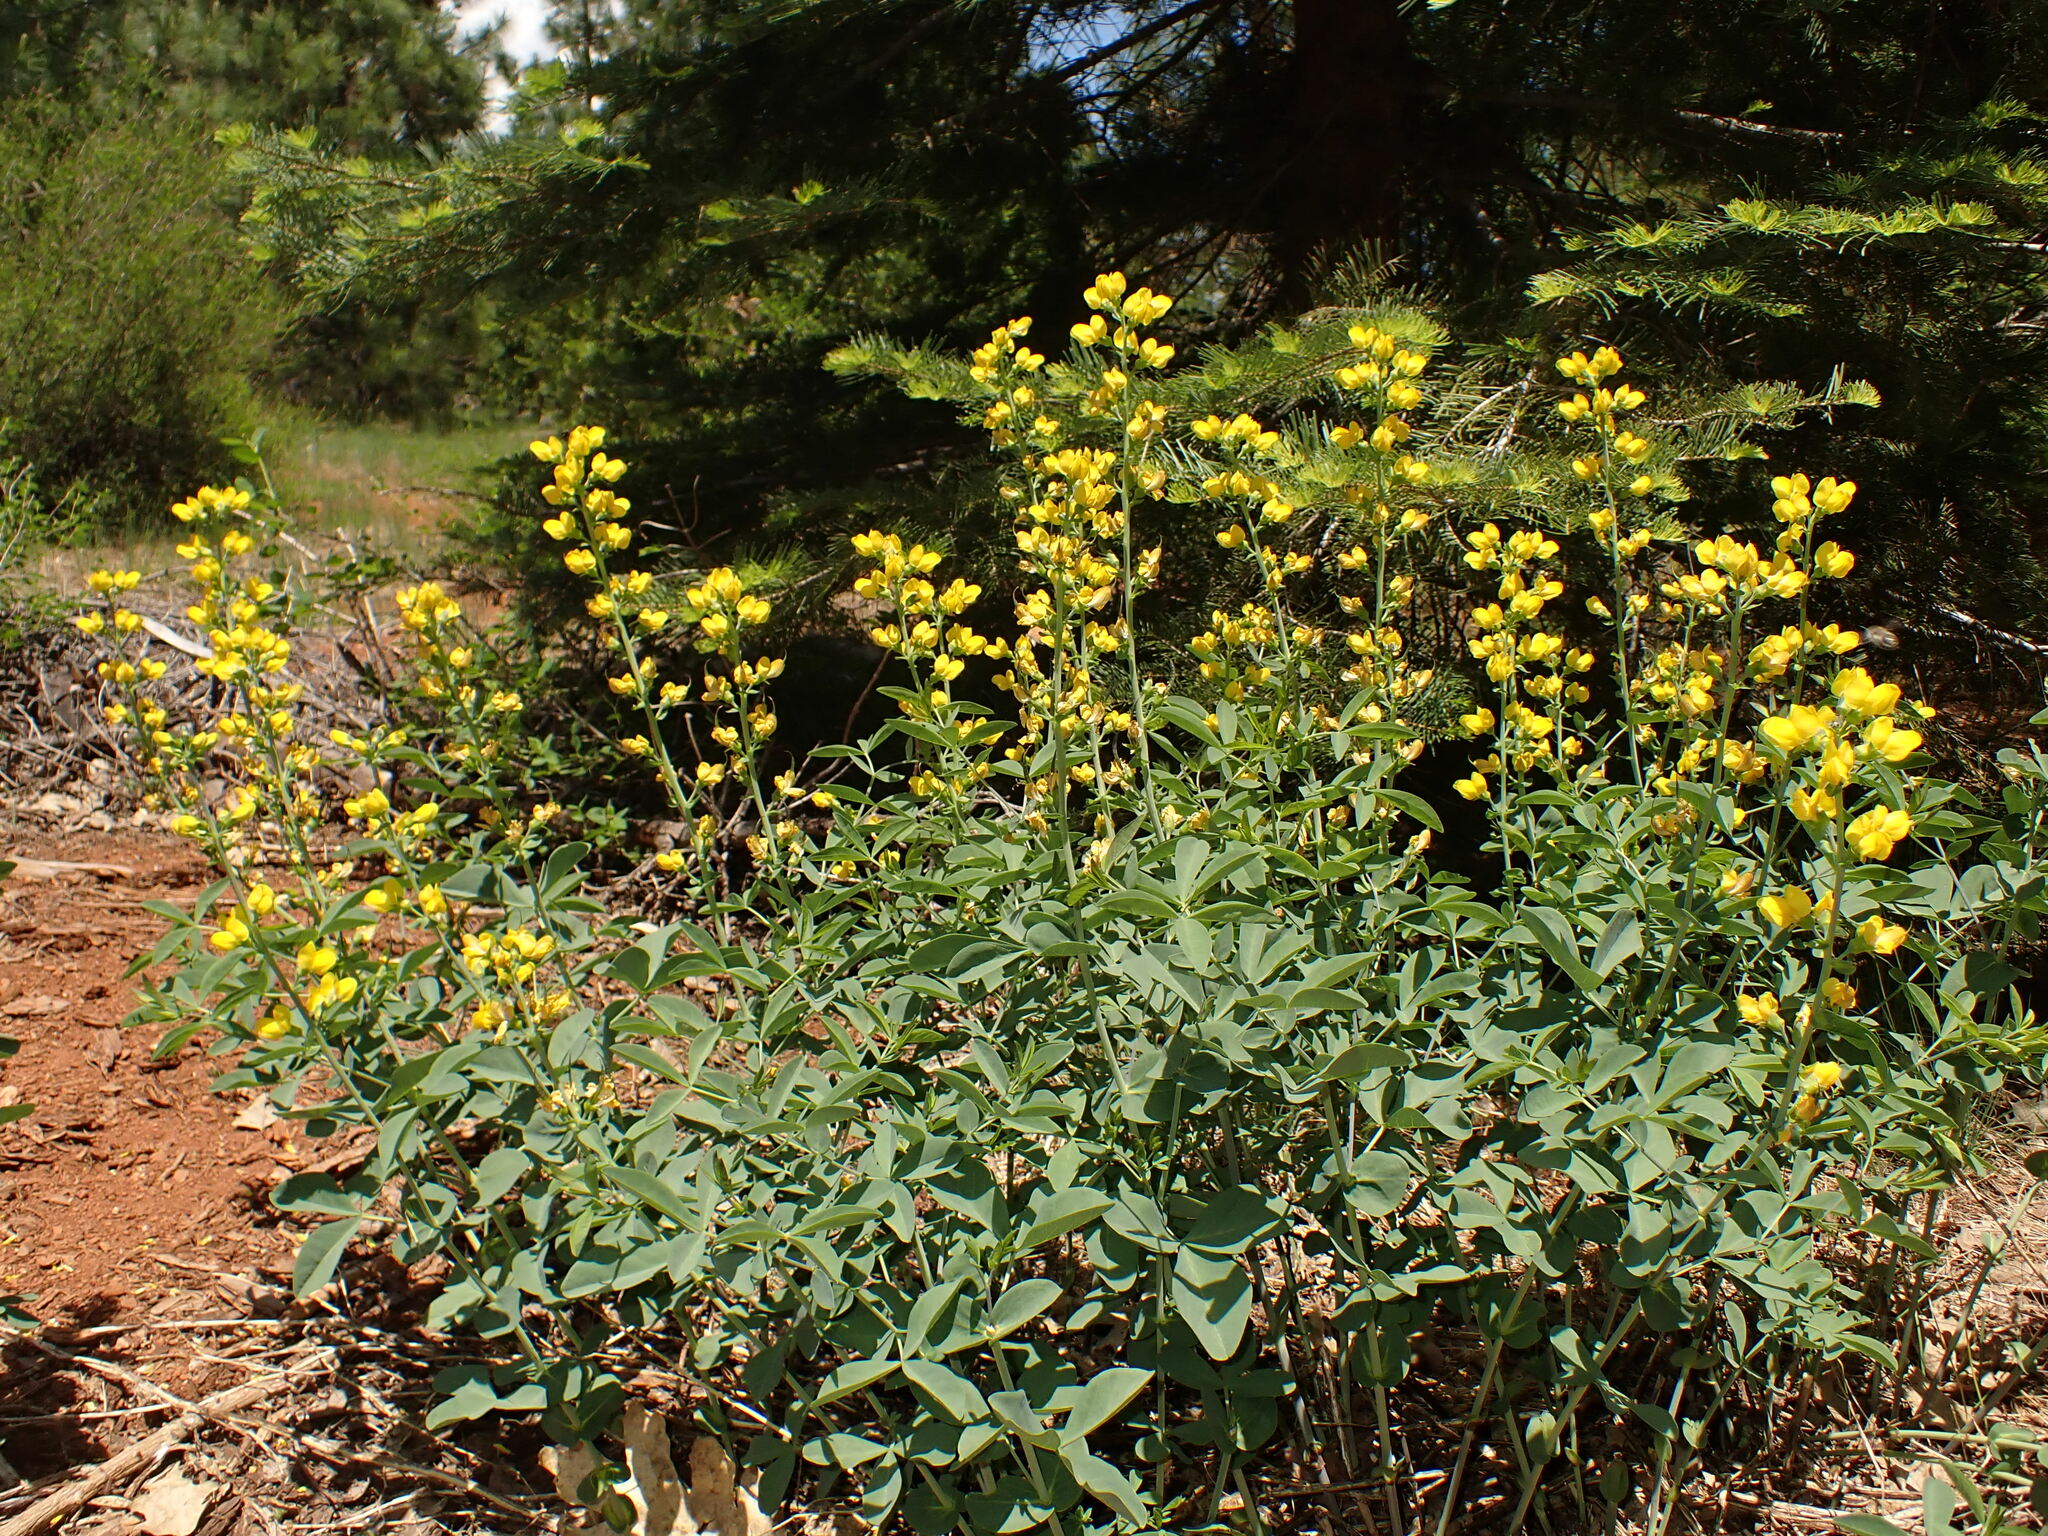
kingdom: Plantae
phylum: Tracheophyta
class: Magnoliopsida
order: Fabales
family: Fabaceae
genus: Thermopsis
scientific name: Thermopsis gracilis
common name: Slender golden-banner
